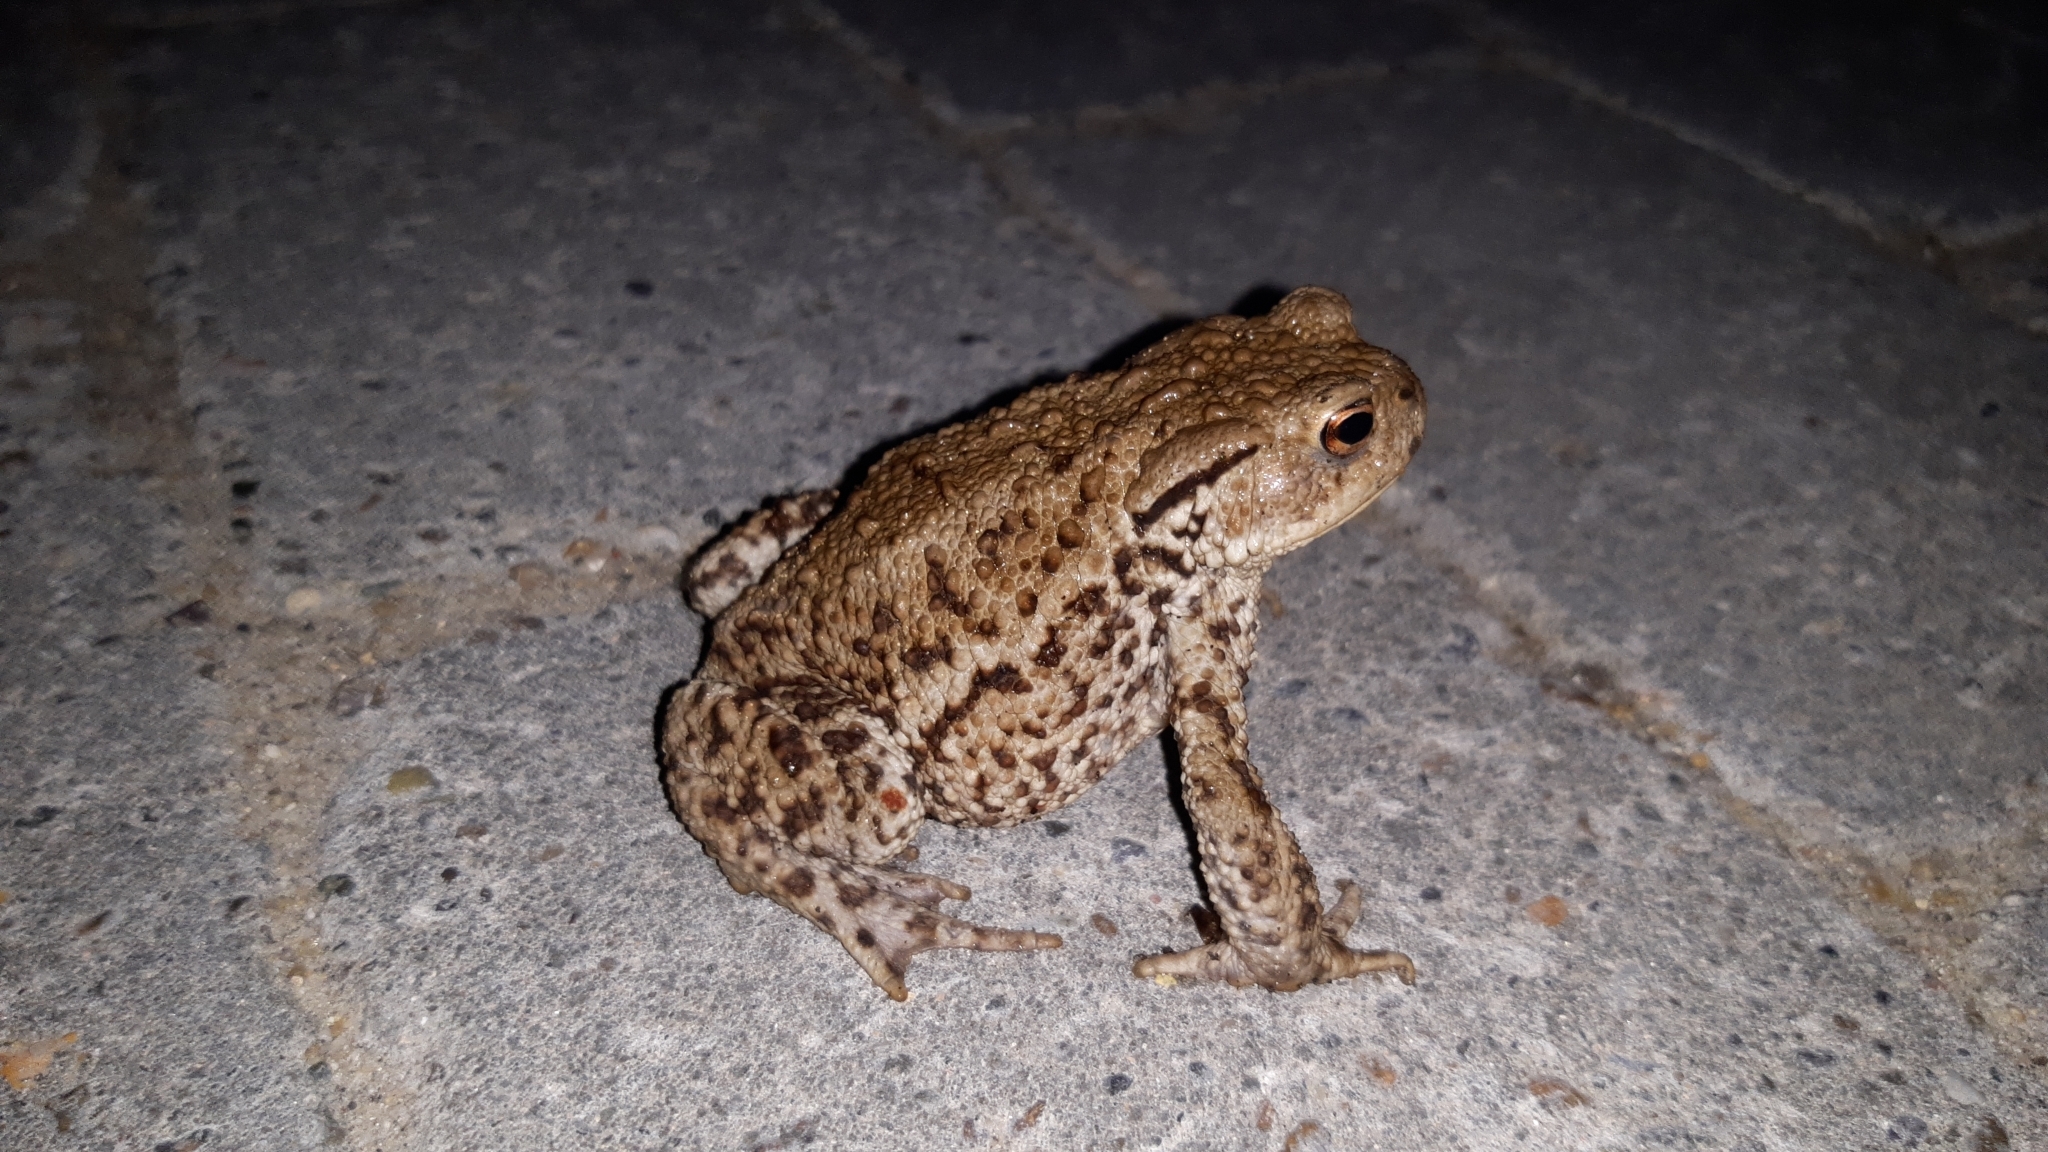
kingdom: Animalia
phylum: Chordata
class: Amphibia
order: Anura
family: Bufonidae
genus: Bufo
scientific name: Bufo bufo
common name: Common toad
